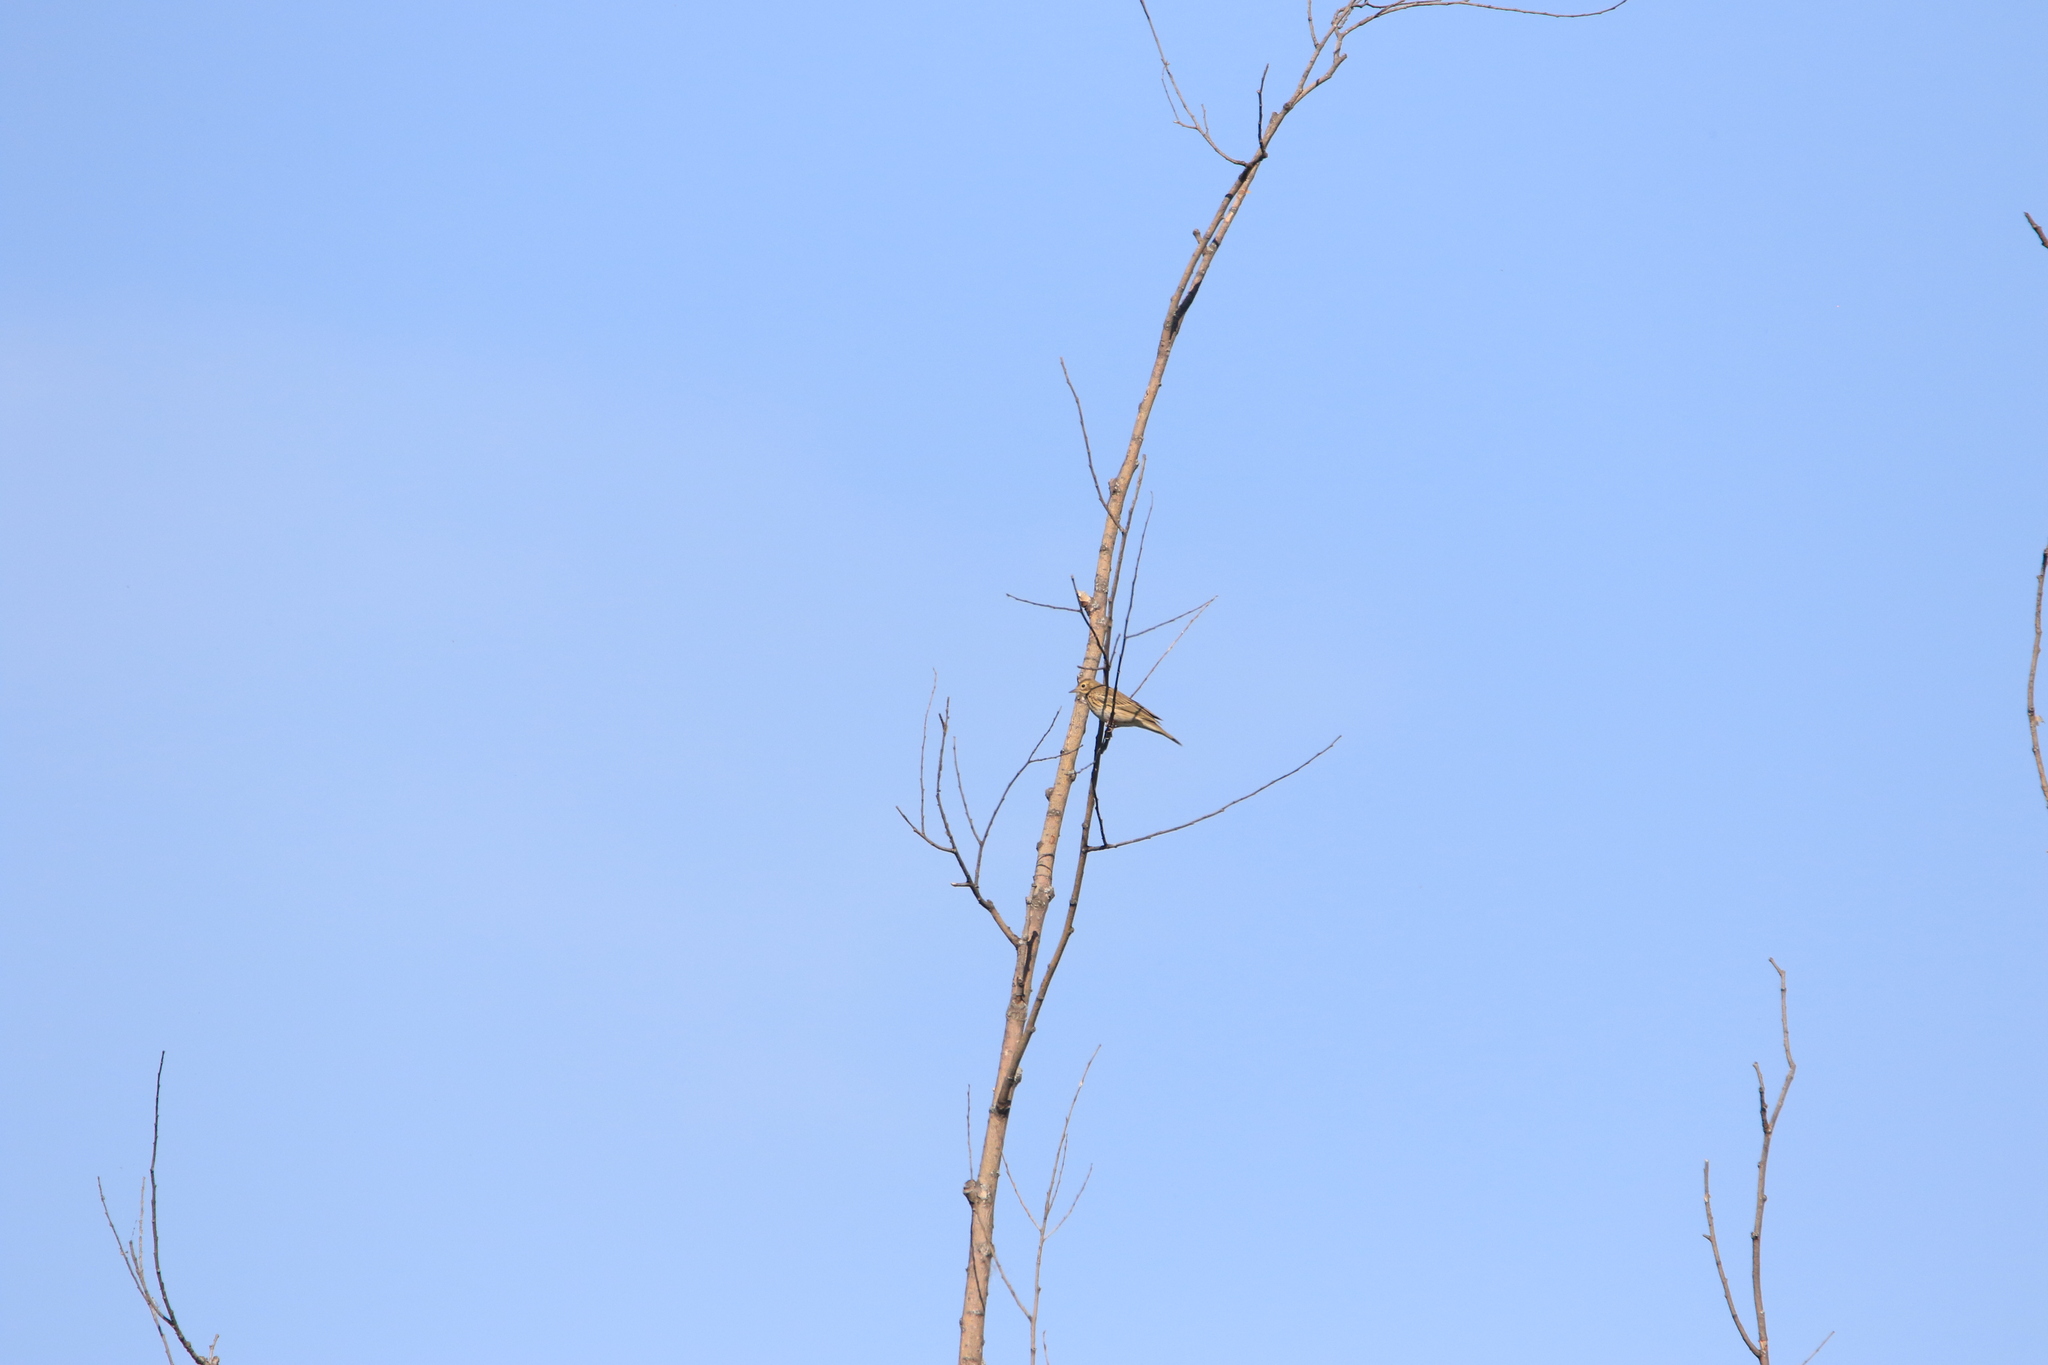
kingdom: Animalia
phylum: Chordata
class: Aves
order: Passeriformes
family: Motacillidae
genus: Anthus
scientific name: Anthus trivialis
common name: Tree pipit
